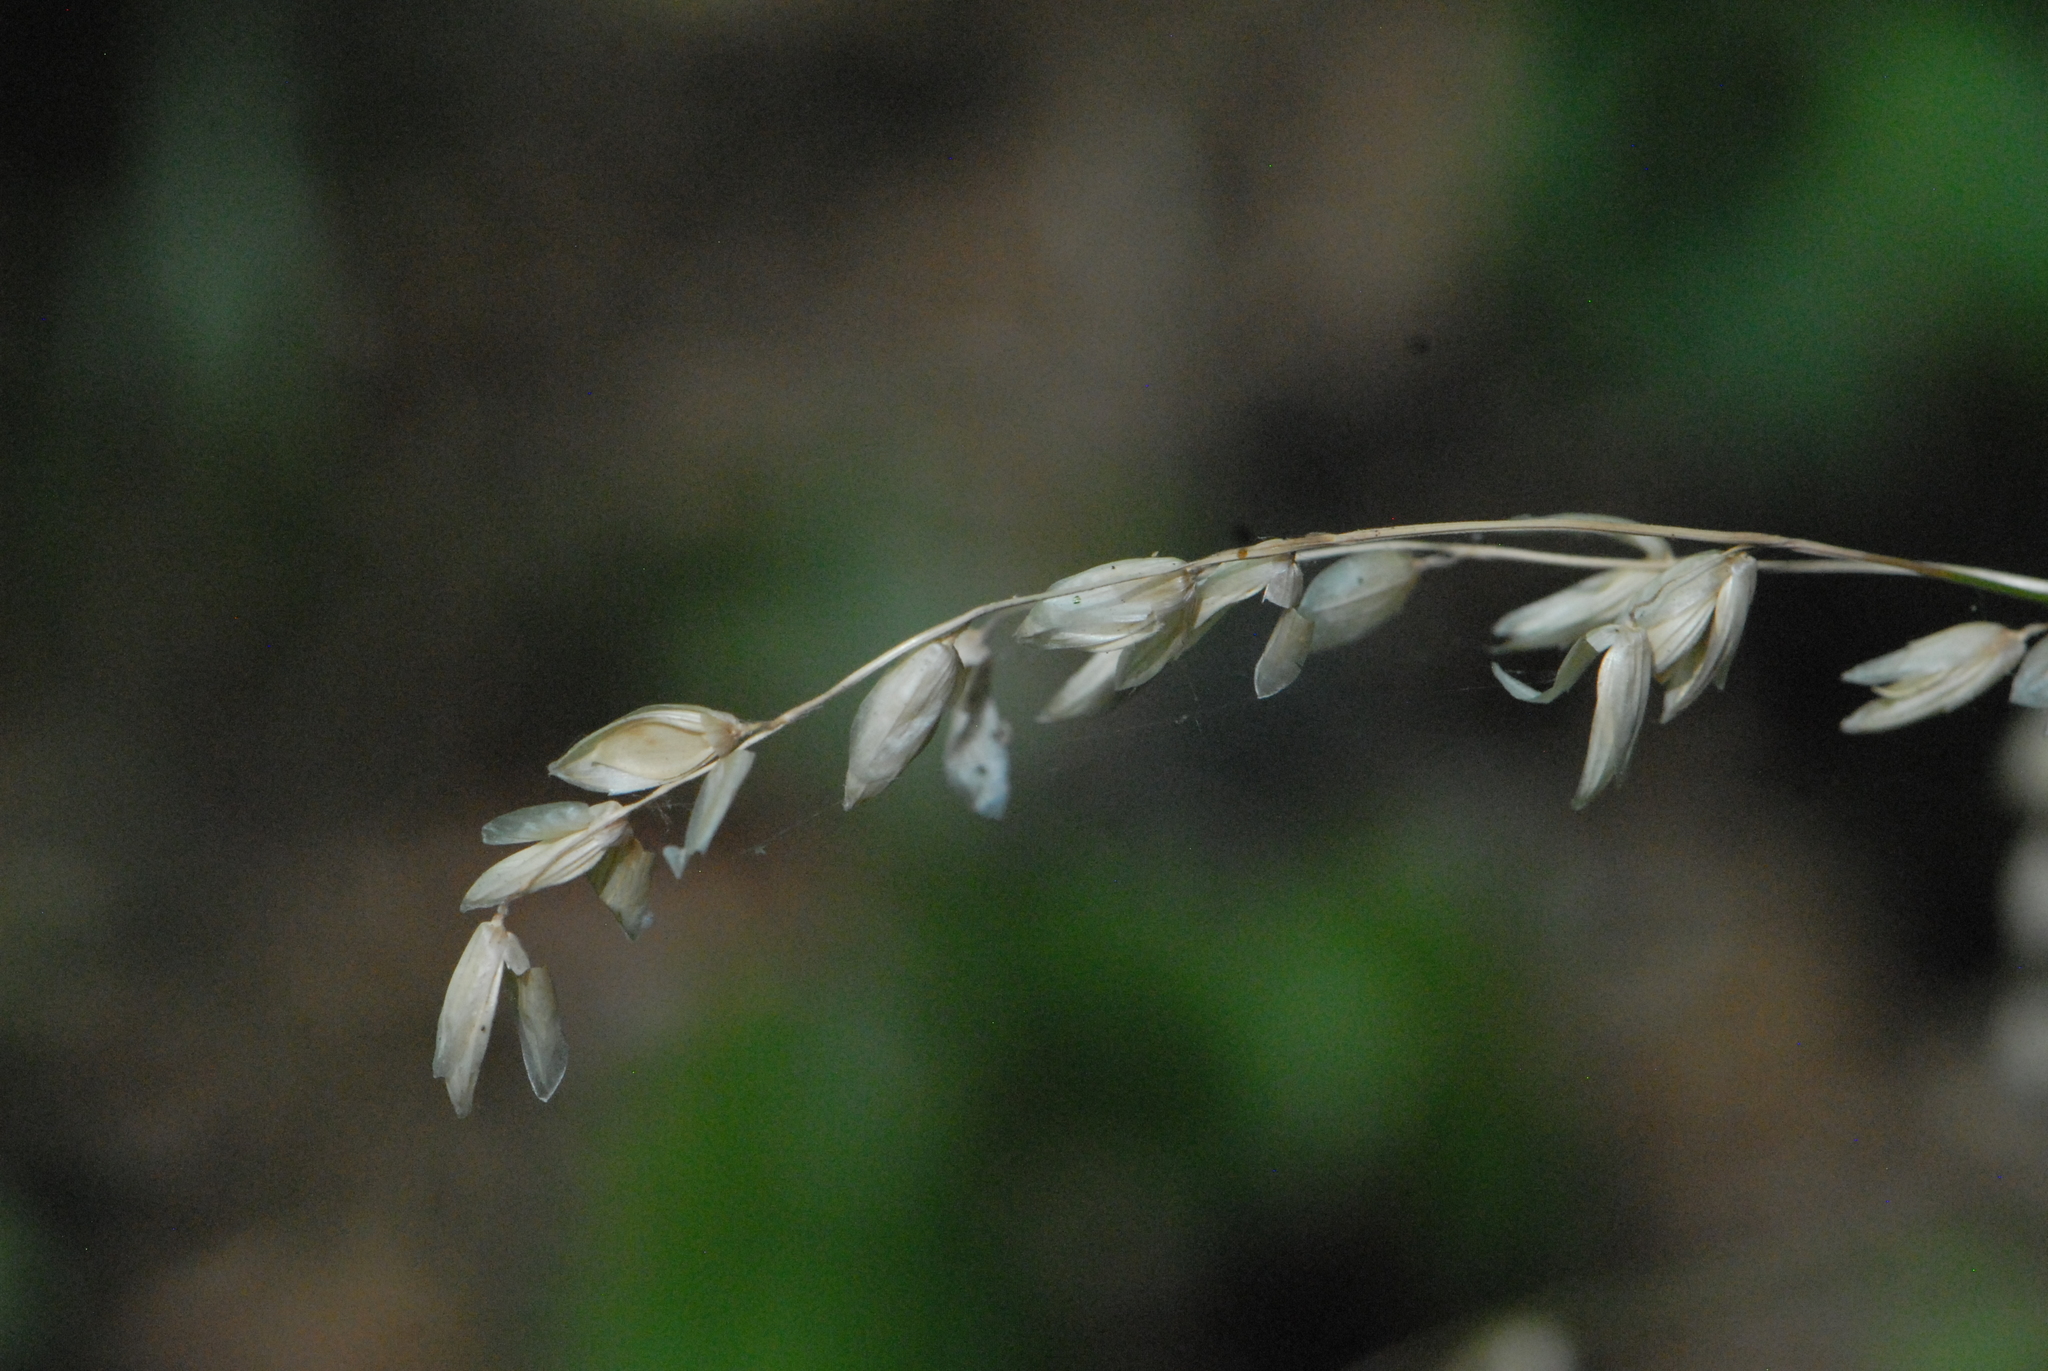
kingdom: Plantae
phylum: Tracheophyta
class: Liliopsida
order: Poales
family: Poaceae
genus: Melica
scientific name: Melica nutans
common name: Mountain melick
